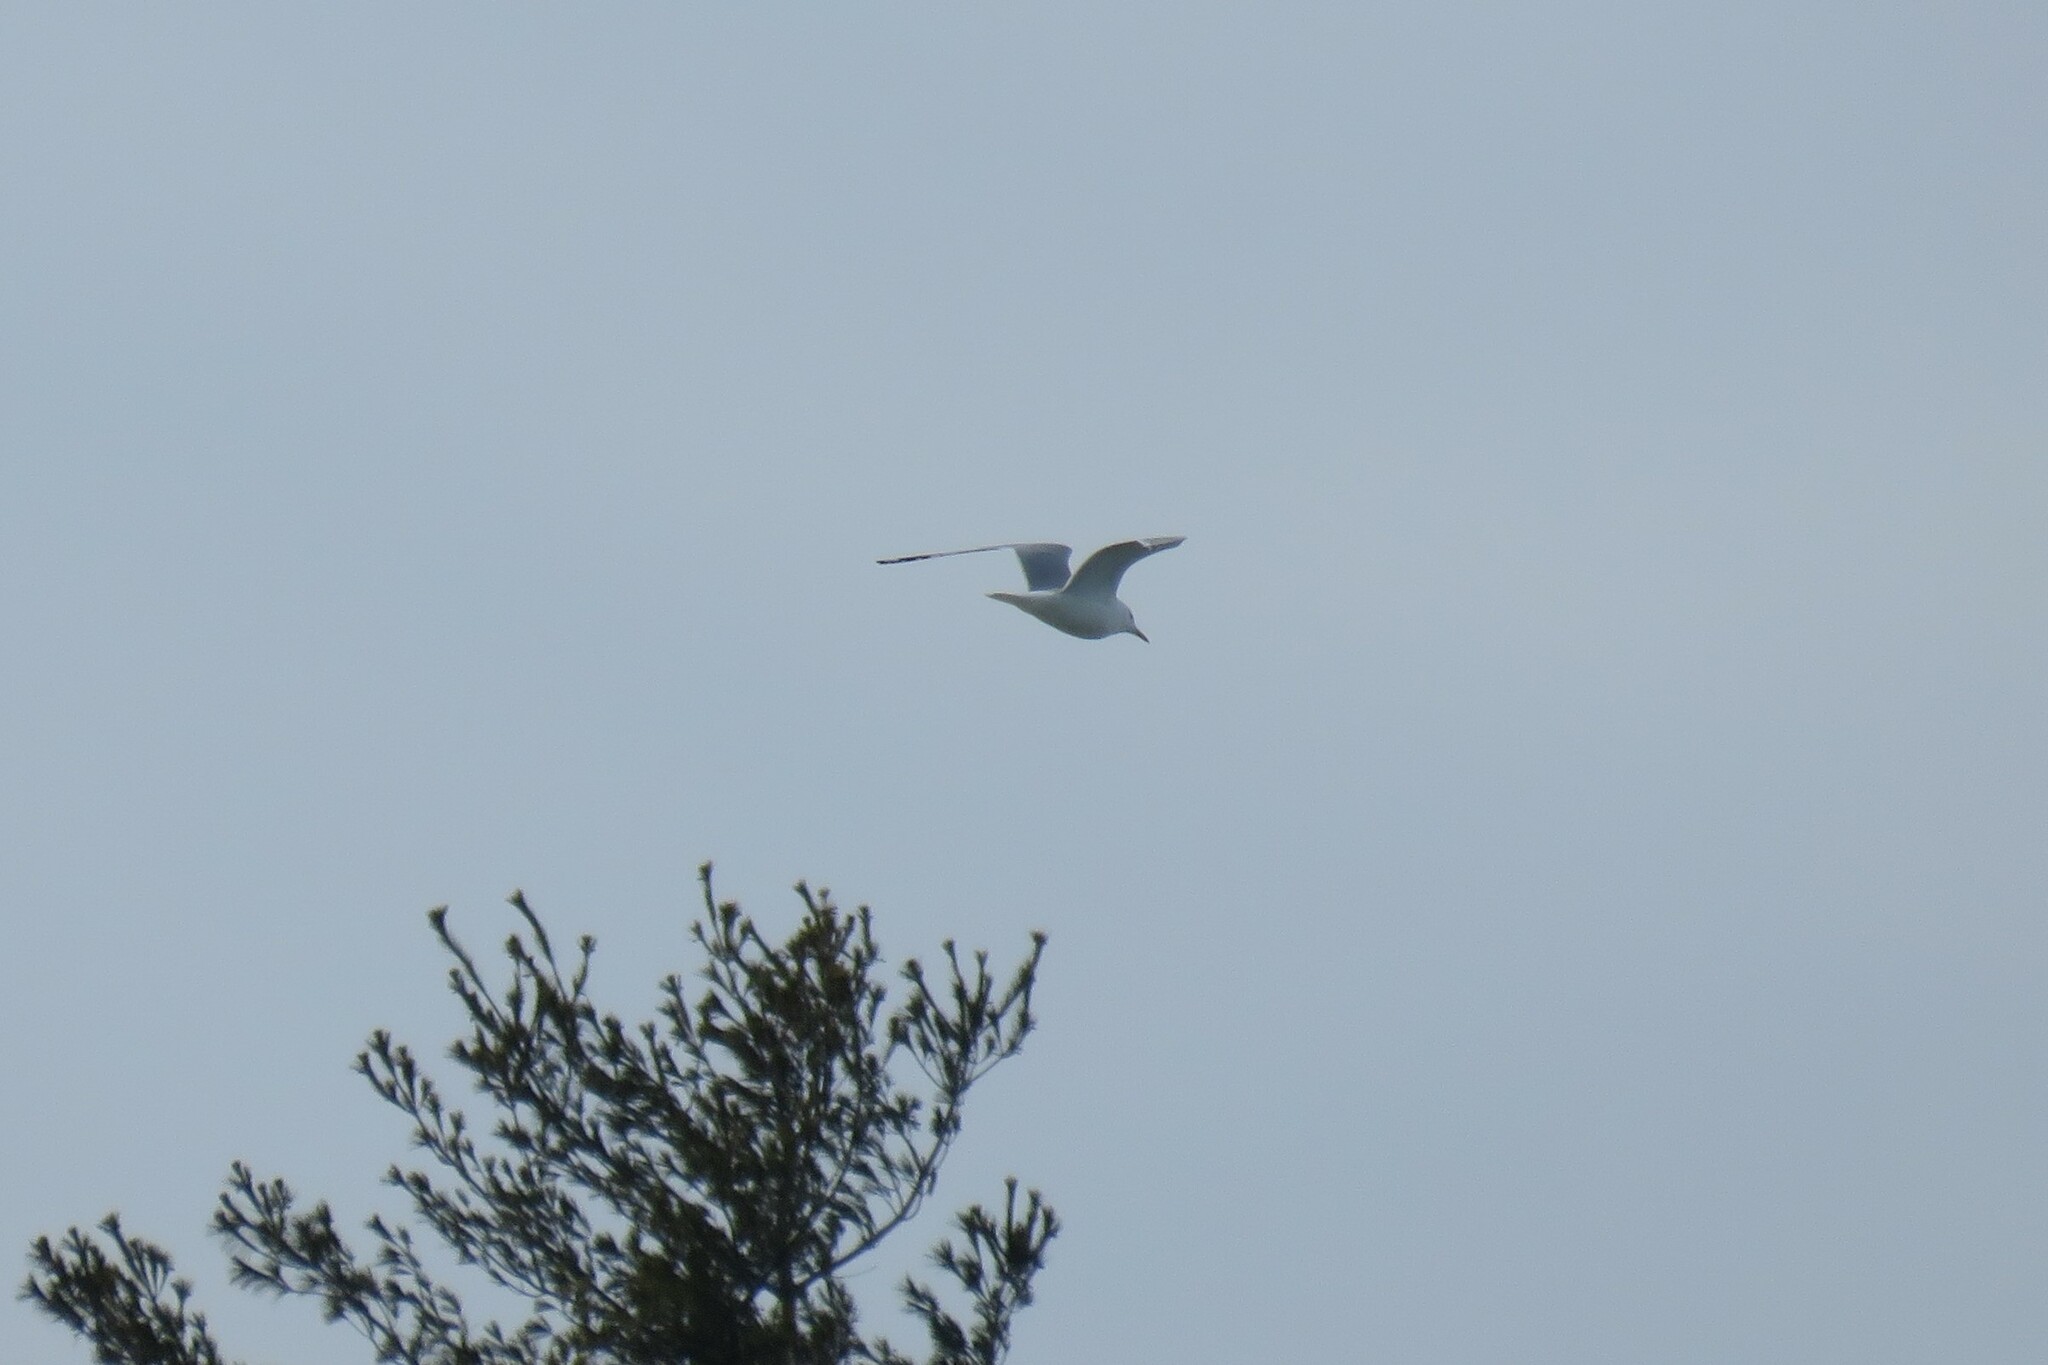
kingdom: Animalia
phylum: Chordata
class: Aves
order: Charadriiformes
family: Laridae
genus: Larus
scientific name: Larus argentatus
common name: Herring gull
